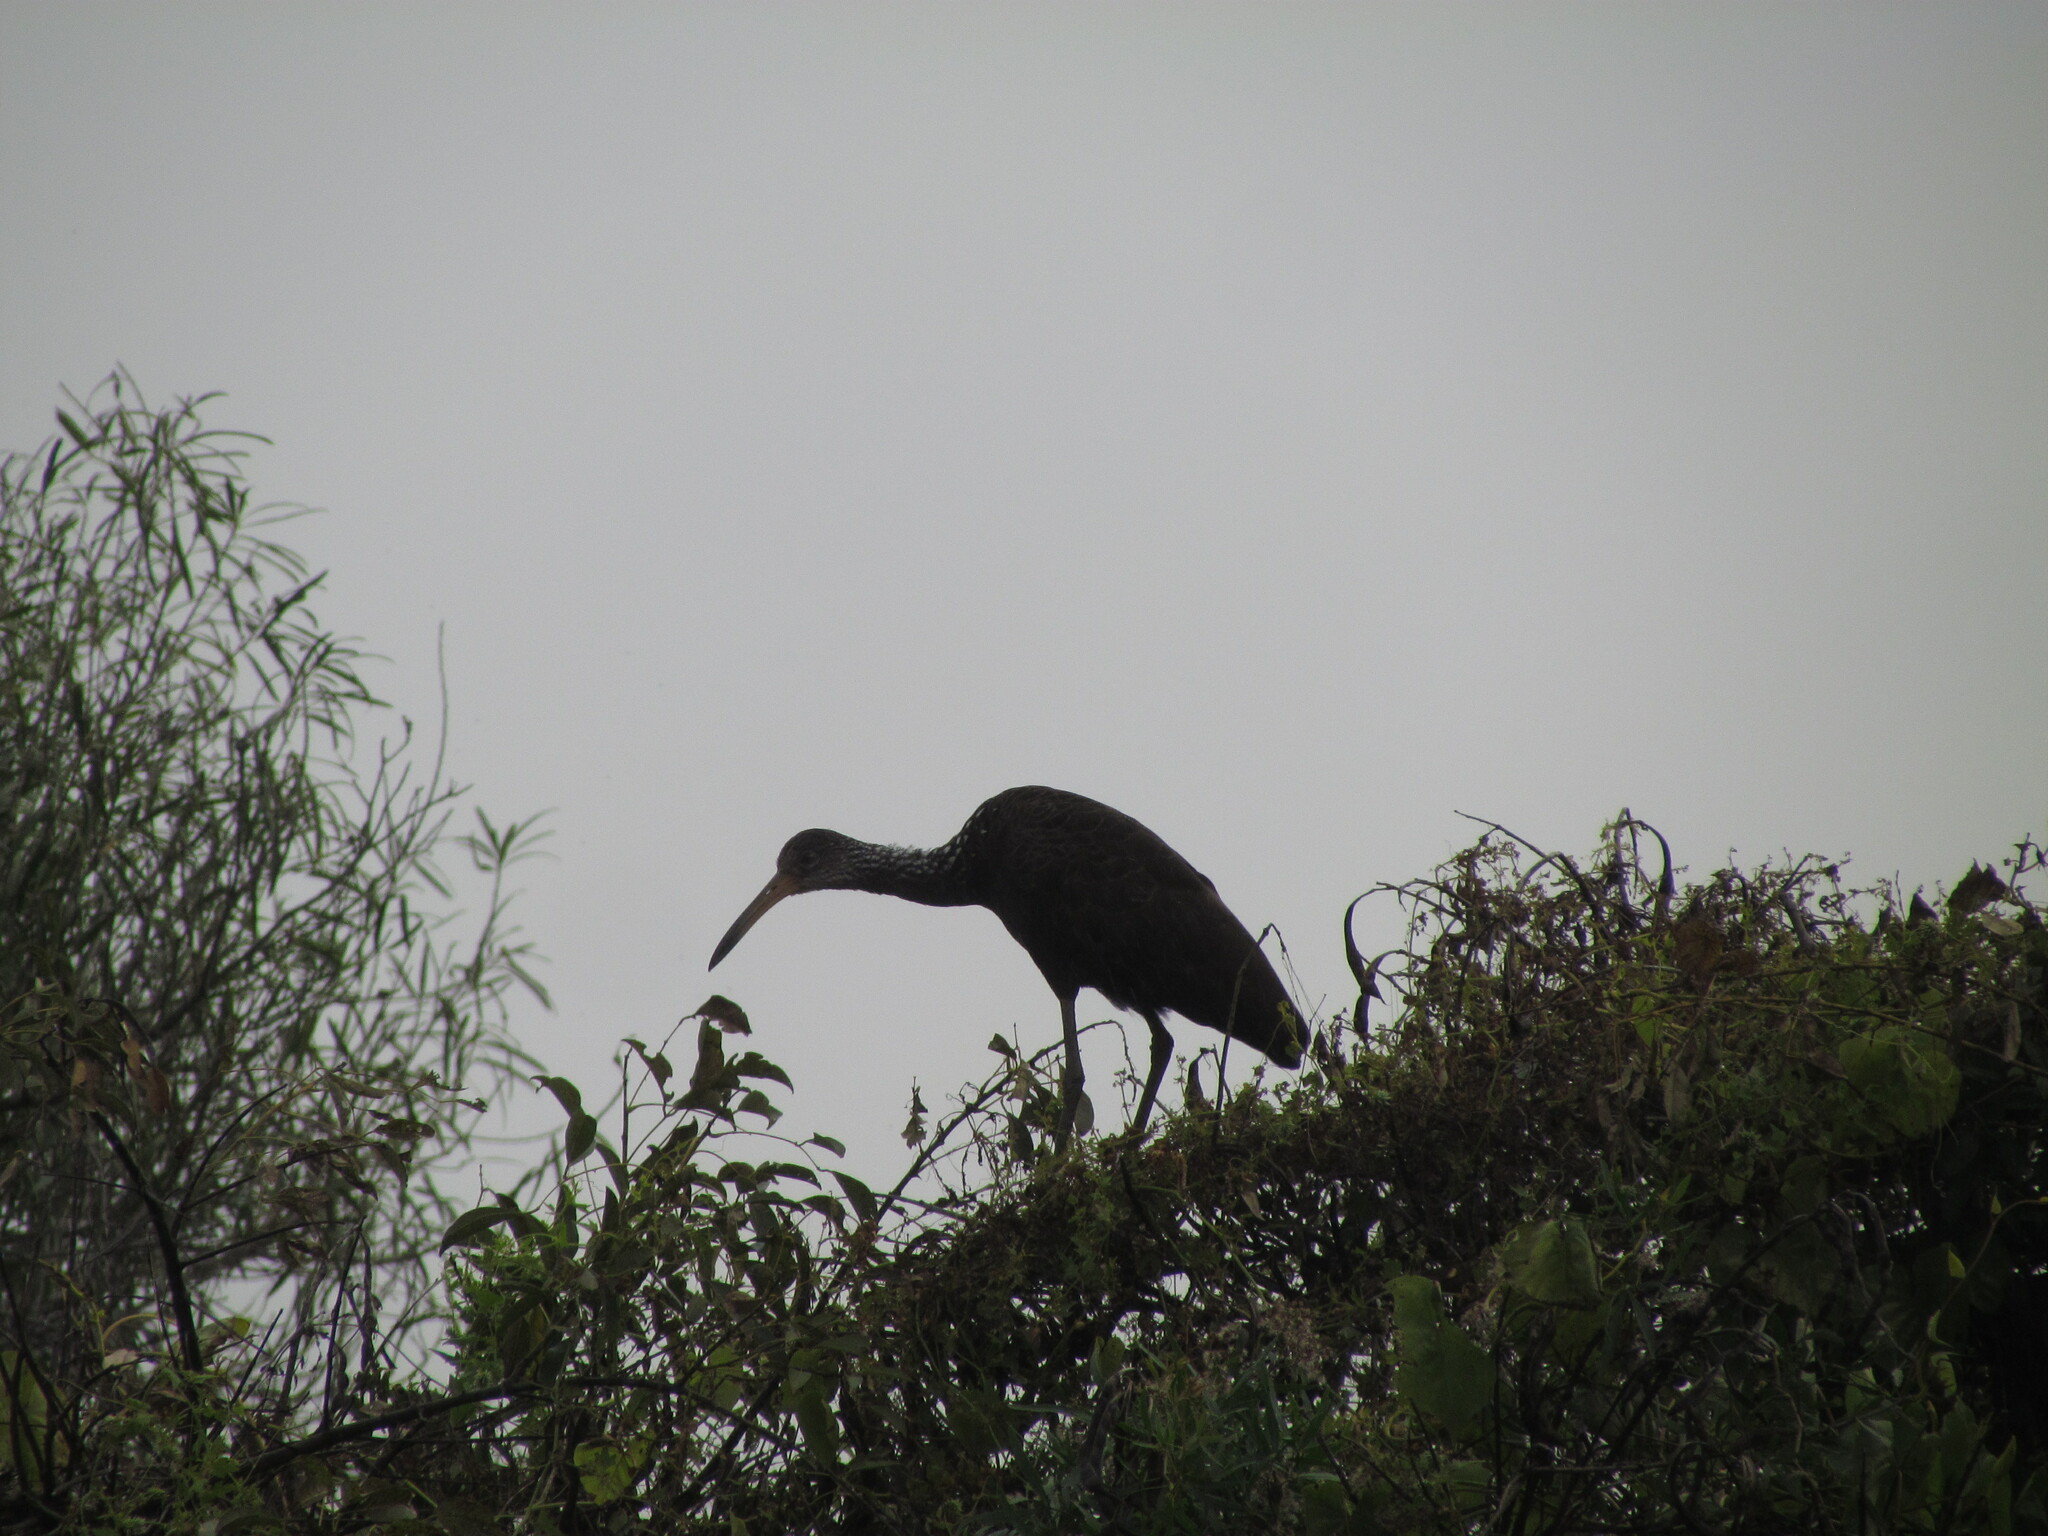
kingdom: Animalia
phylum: Chordata
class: Aves
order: Gruiformes
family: Aramidae
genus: Aramus
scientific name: Aramus guarauna
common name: Limpkin
